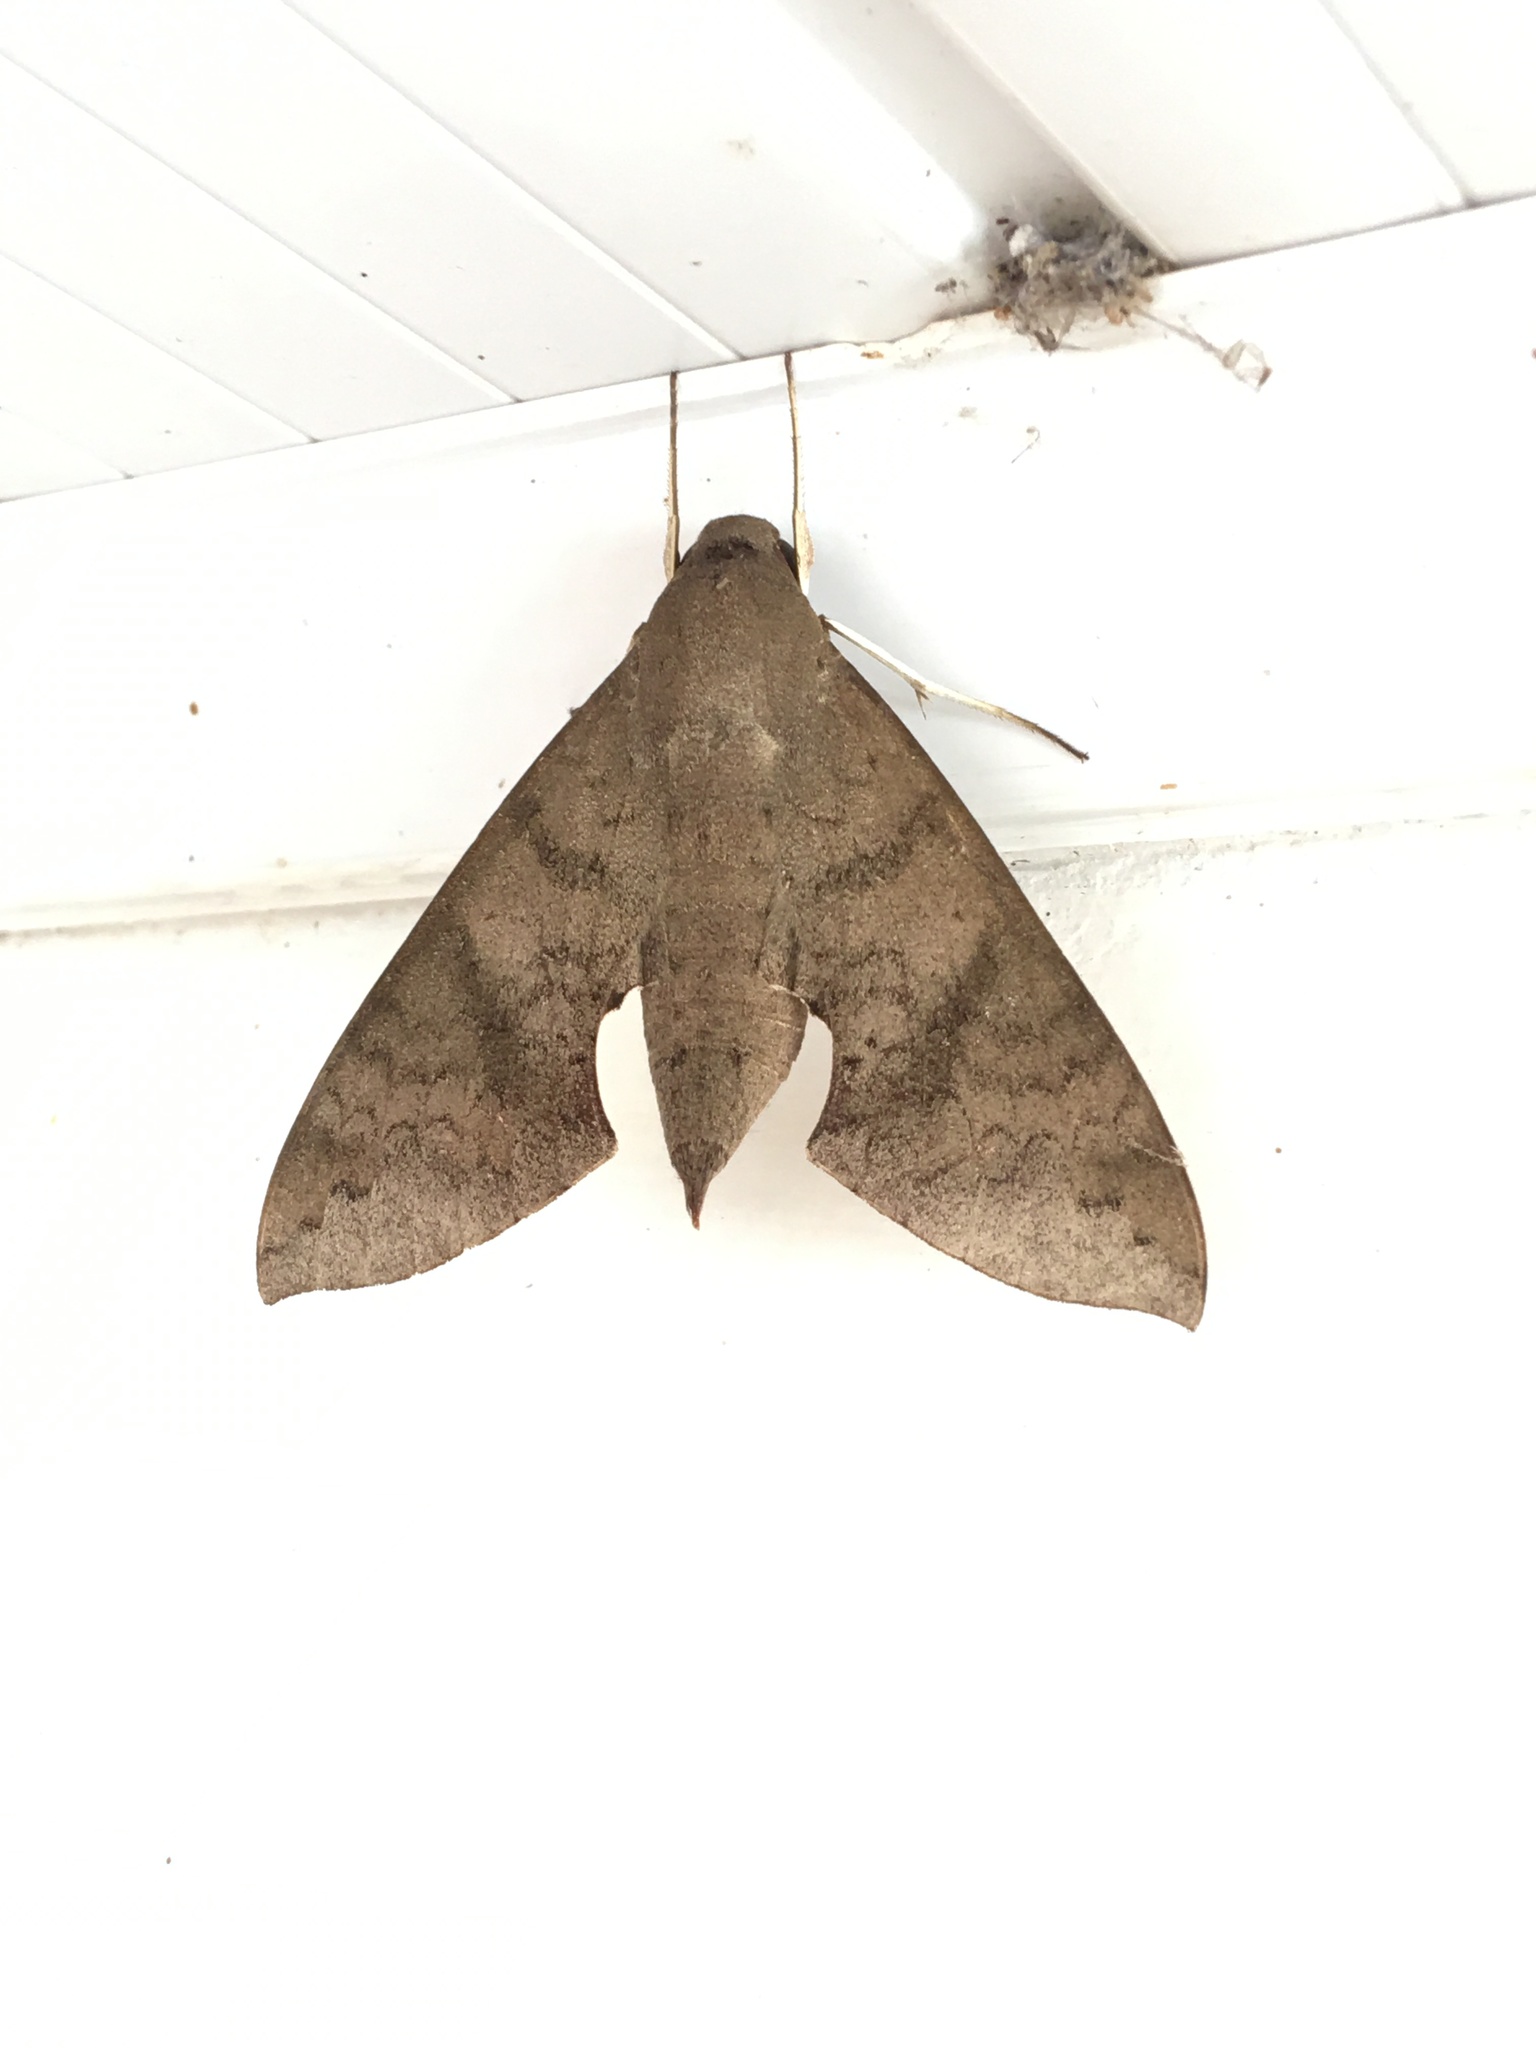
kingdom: Animalia
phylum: Arthropoda
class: Insecta
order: Lepidoptera
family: Sphingidae
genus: Pachylioides
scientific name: Pachylioides resumens
